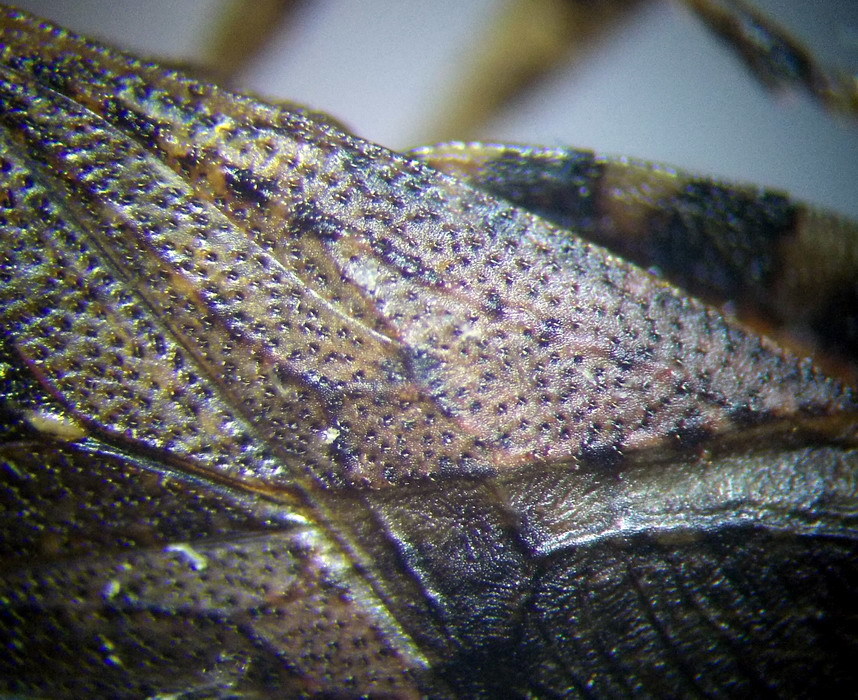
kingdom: Animalia
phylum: Arthropoda
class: Insecta
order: Hemiptera
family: Coreidae
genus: Ceraleptus
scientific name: Ceraleptus gracilicornis
